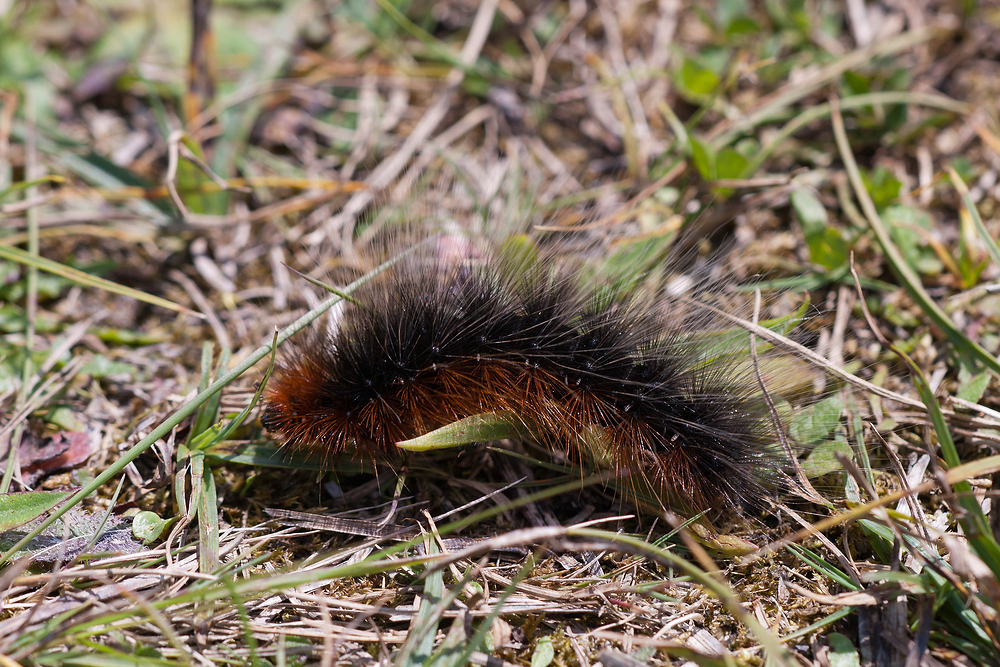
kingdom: Animalia
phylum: Arthropoda
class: Insecta
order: Lepidoptera
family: Erebidae
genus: Arctia
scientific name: Arctia caja
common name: Garden tiger
